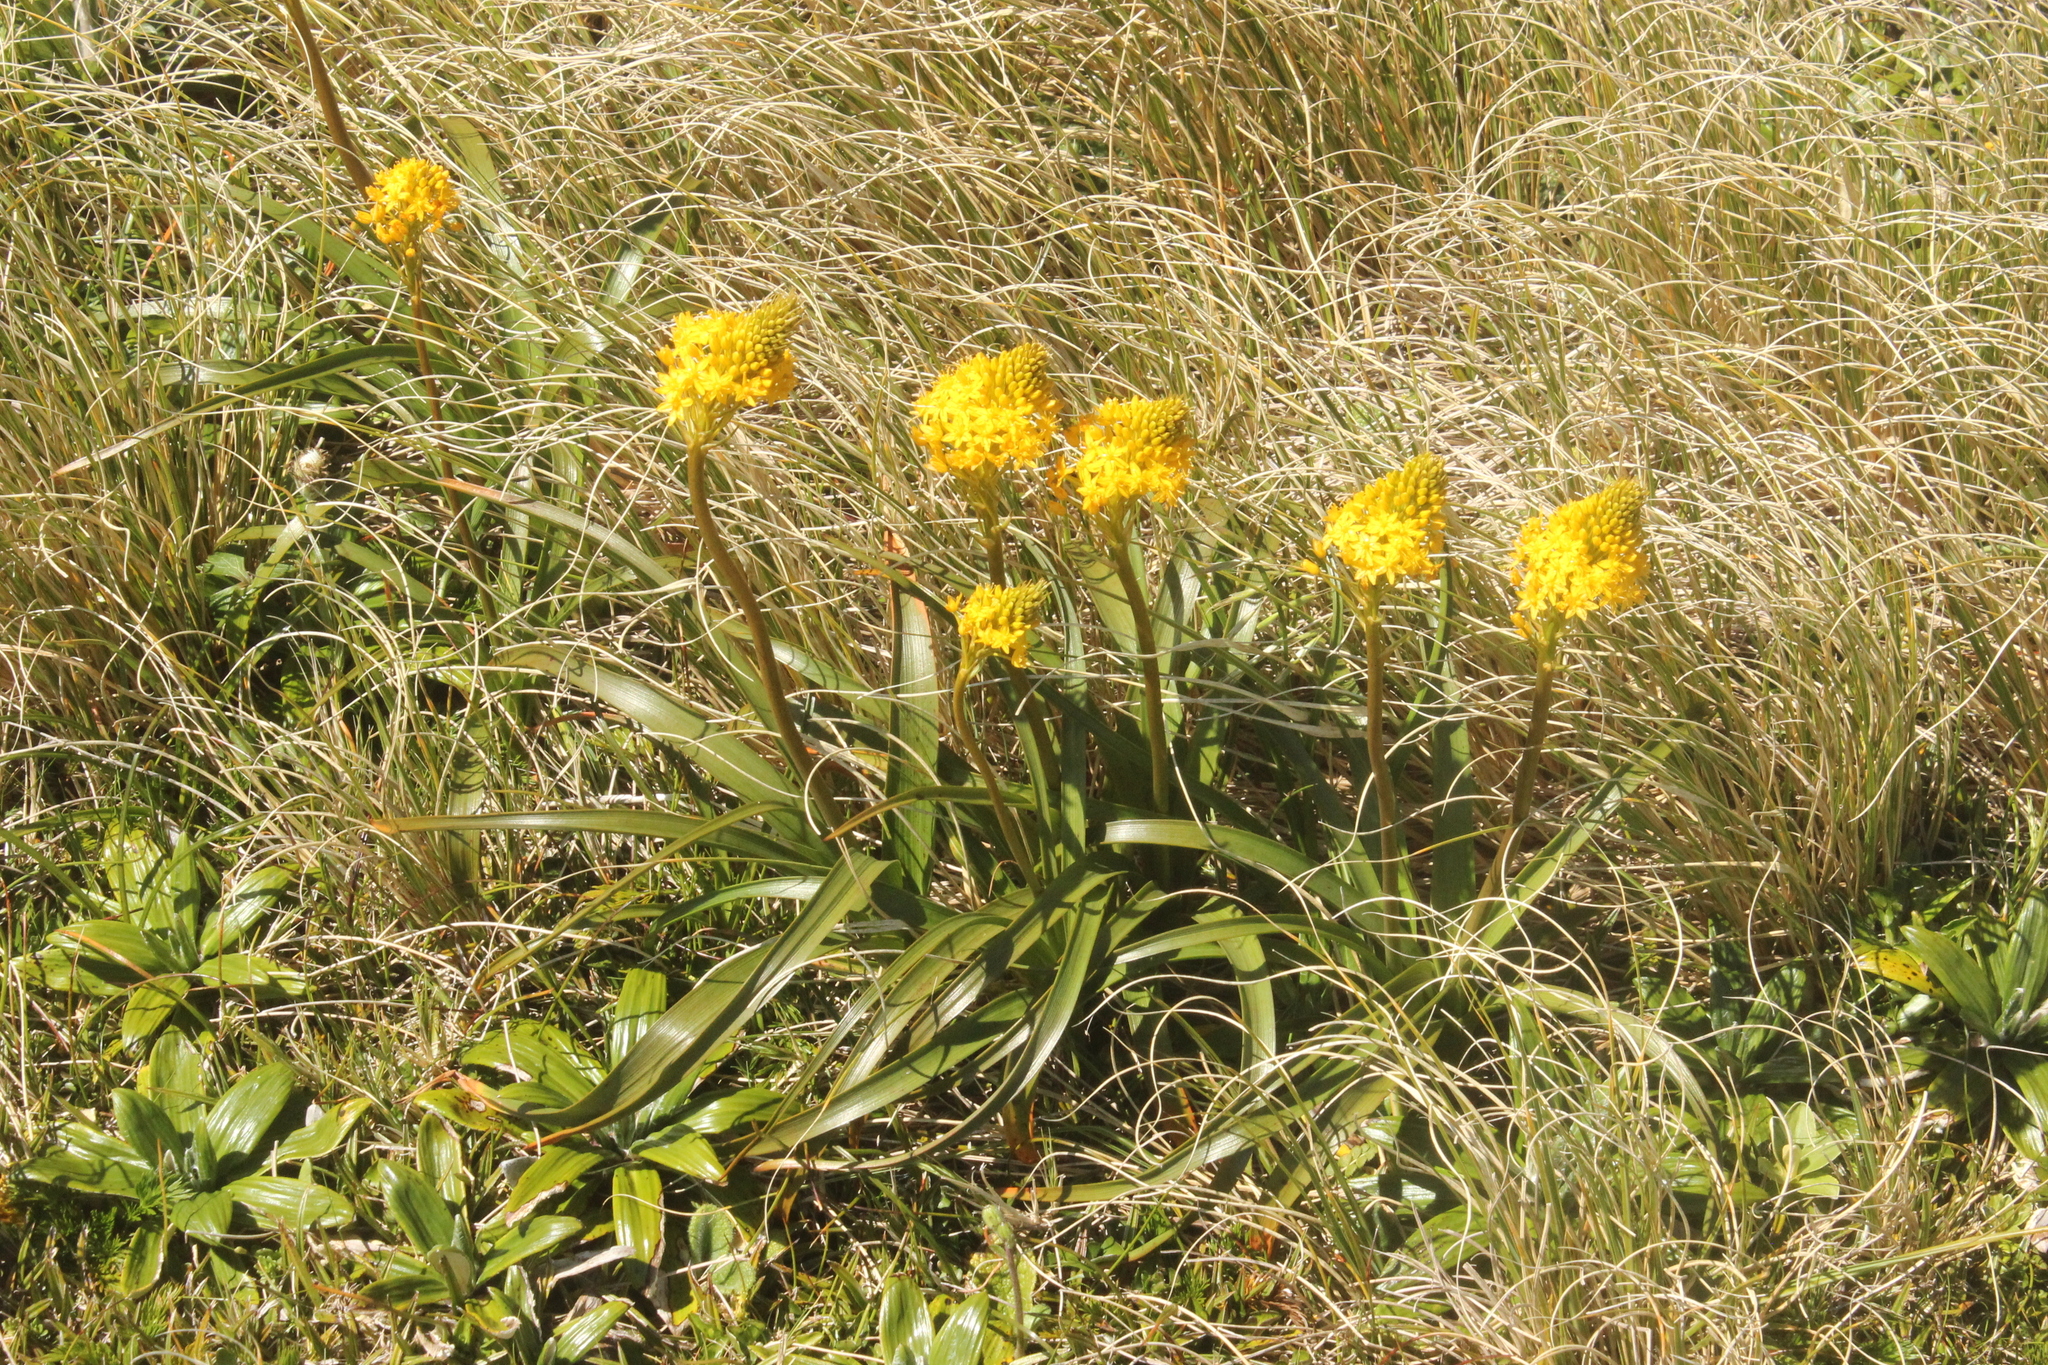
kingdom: Plantae
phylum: Tracheophyta
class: Liliopsida
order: Asparagales
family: Asphodelaceae
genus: Bulbinella
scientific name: Bulbinella hookeri
